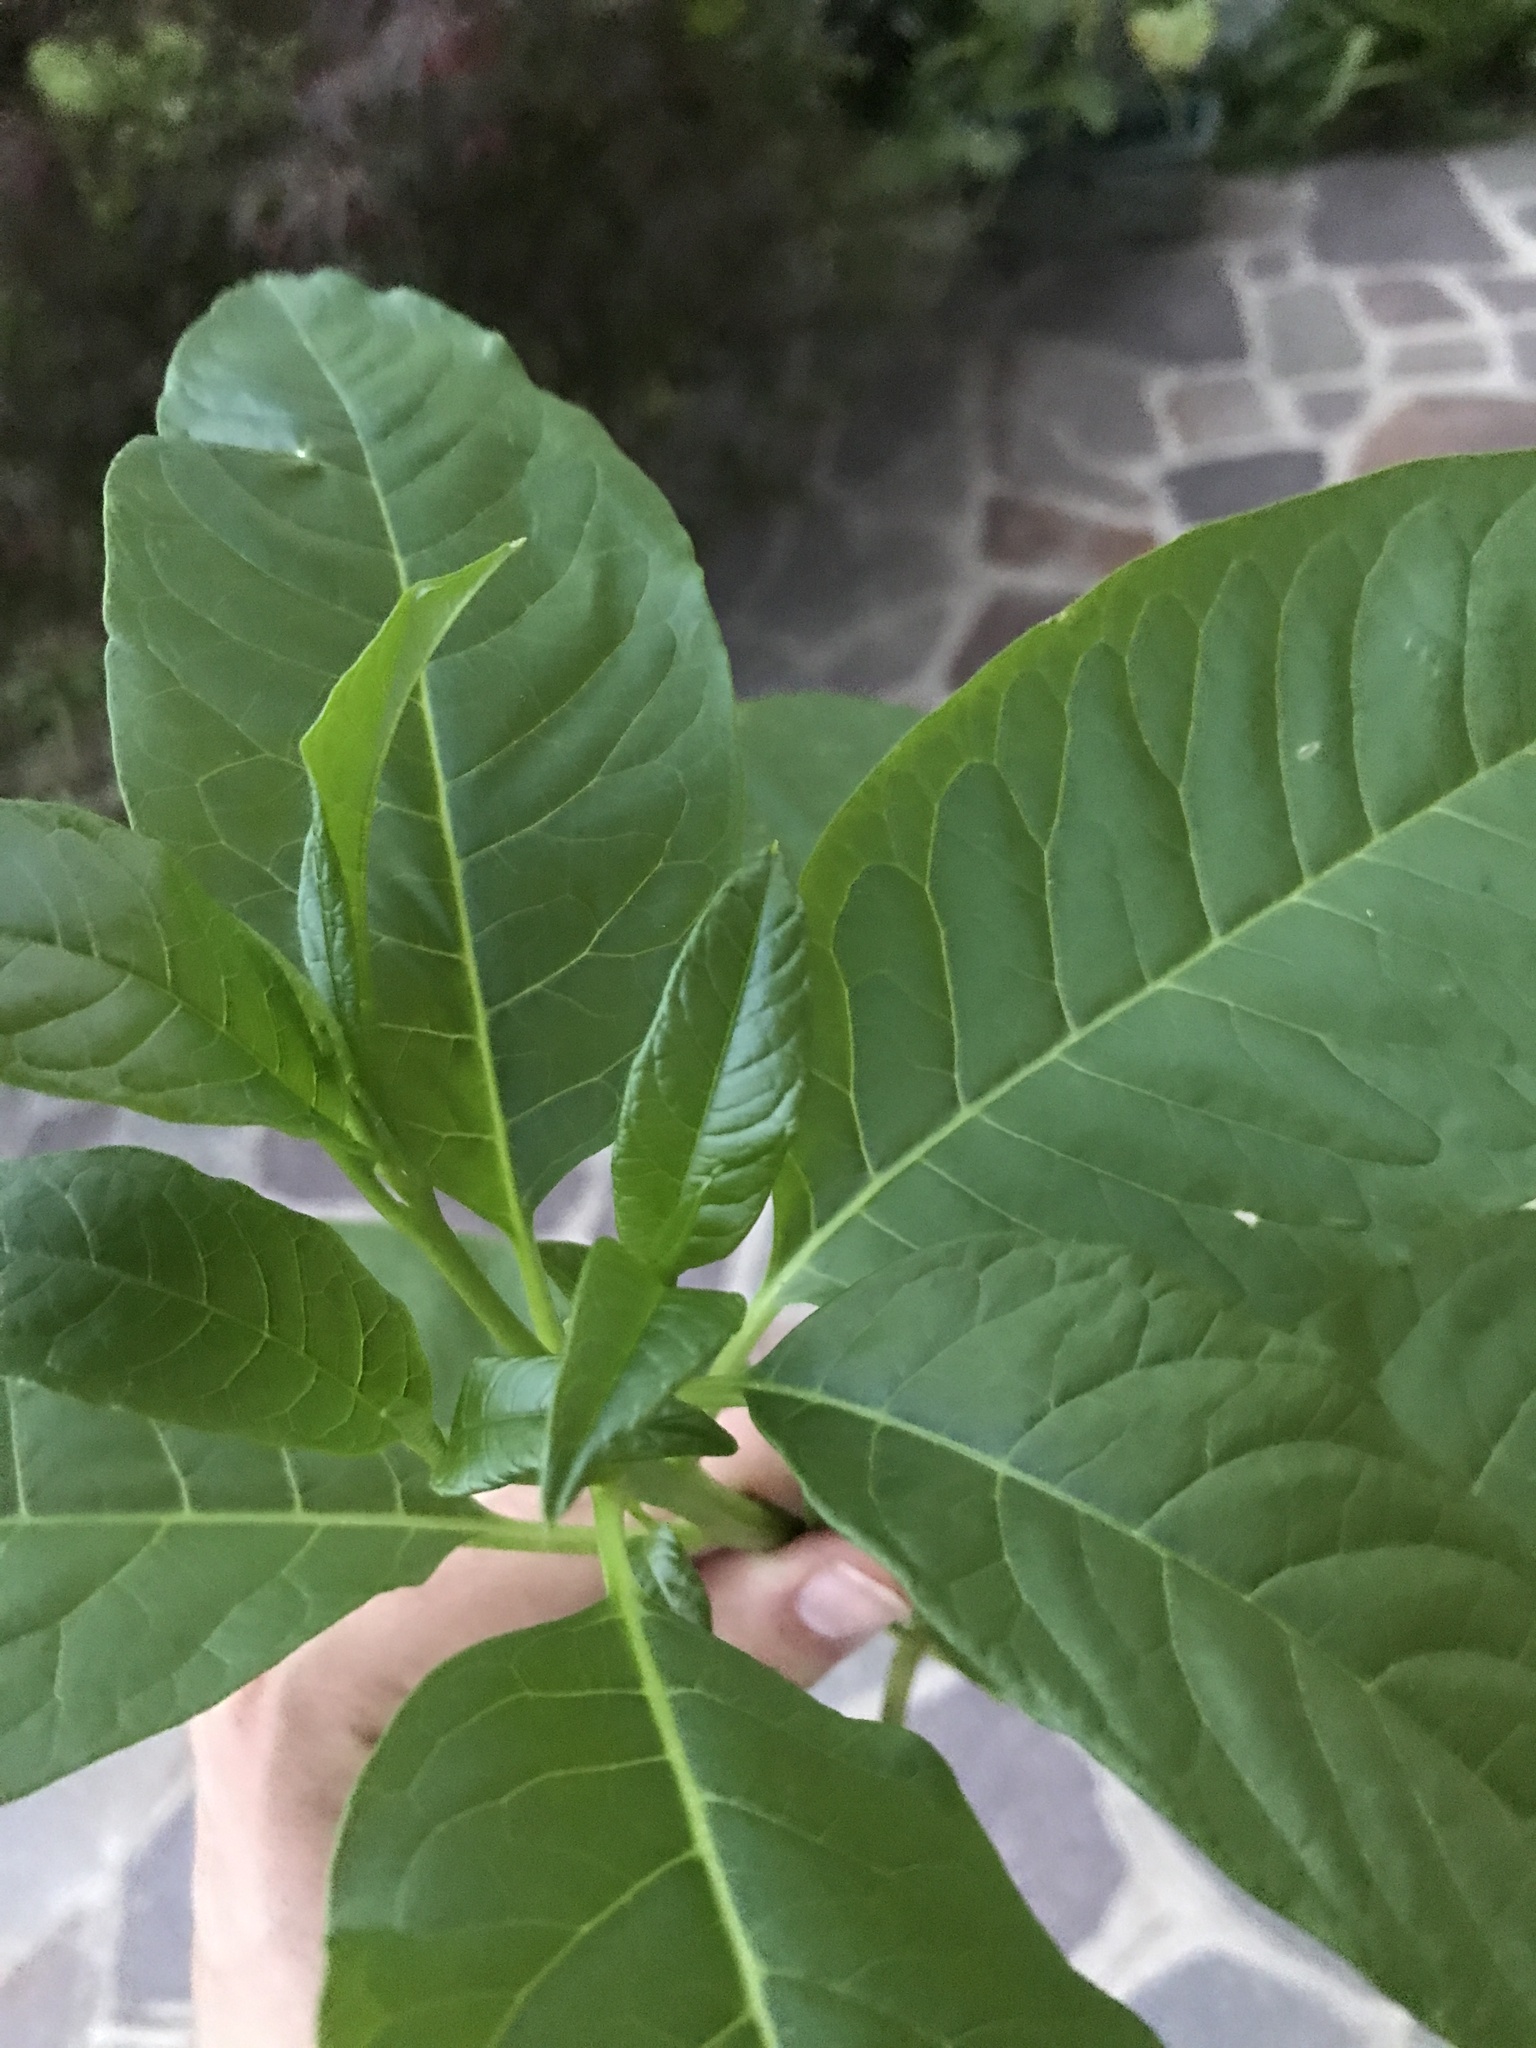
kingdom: Plantae
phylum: Tracheophyta
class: Magnoliopsida
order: Caryophyllales
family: Phytolaccaceae
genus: Phytolacca
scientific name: Phytolacca americana
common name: American pokeweed
